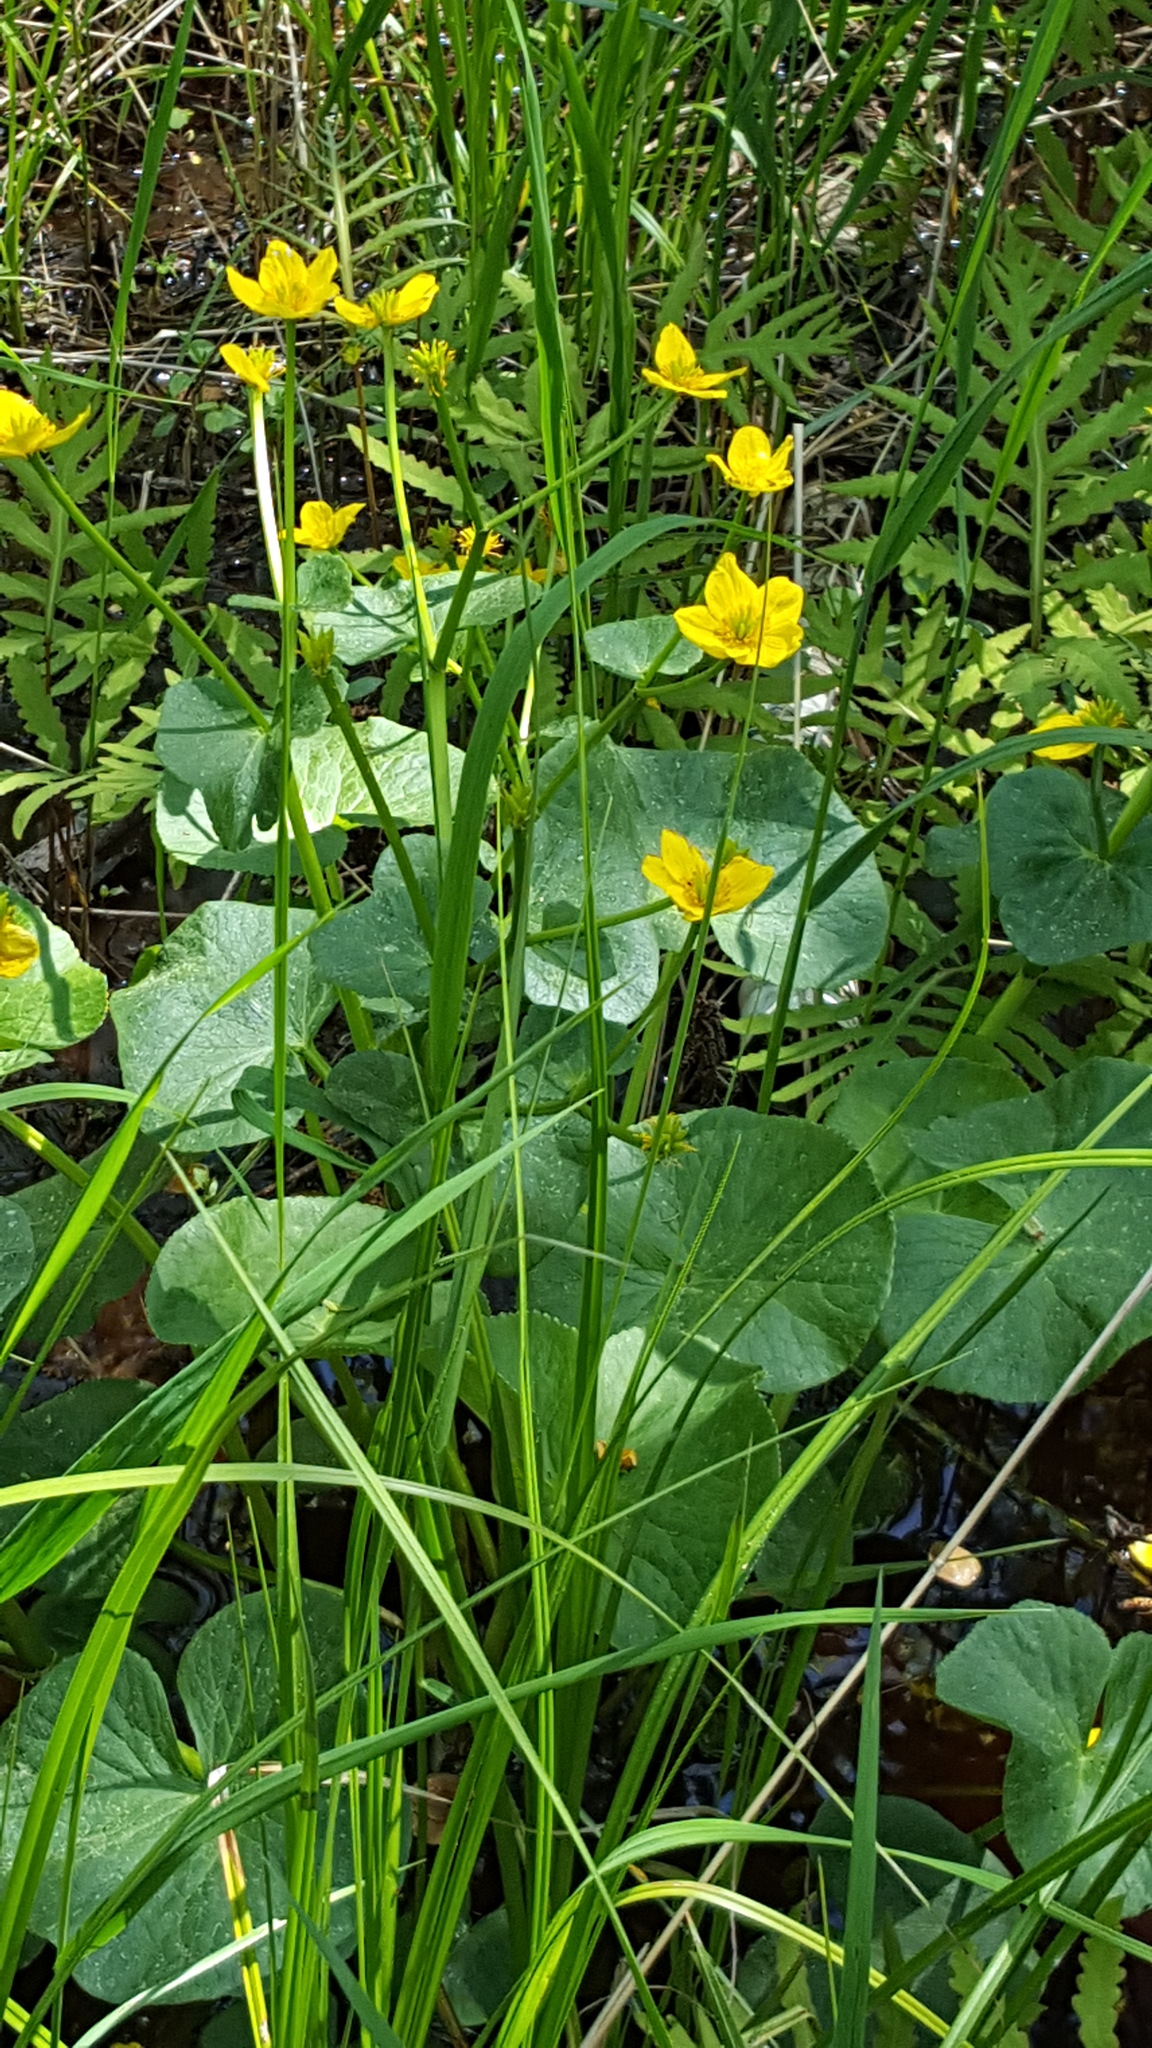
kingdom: Plantae
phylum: Tracheophyta
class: Magnoliopsida
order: Ranunculales
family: Ranunculaceae
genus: Caltha
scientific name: Caltha palustris
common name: Marsh marigold
